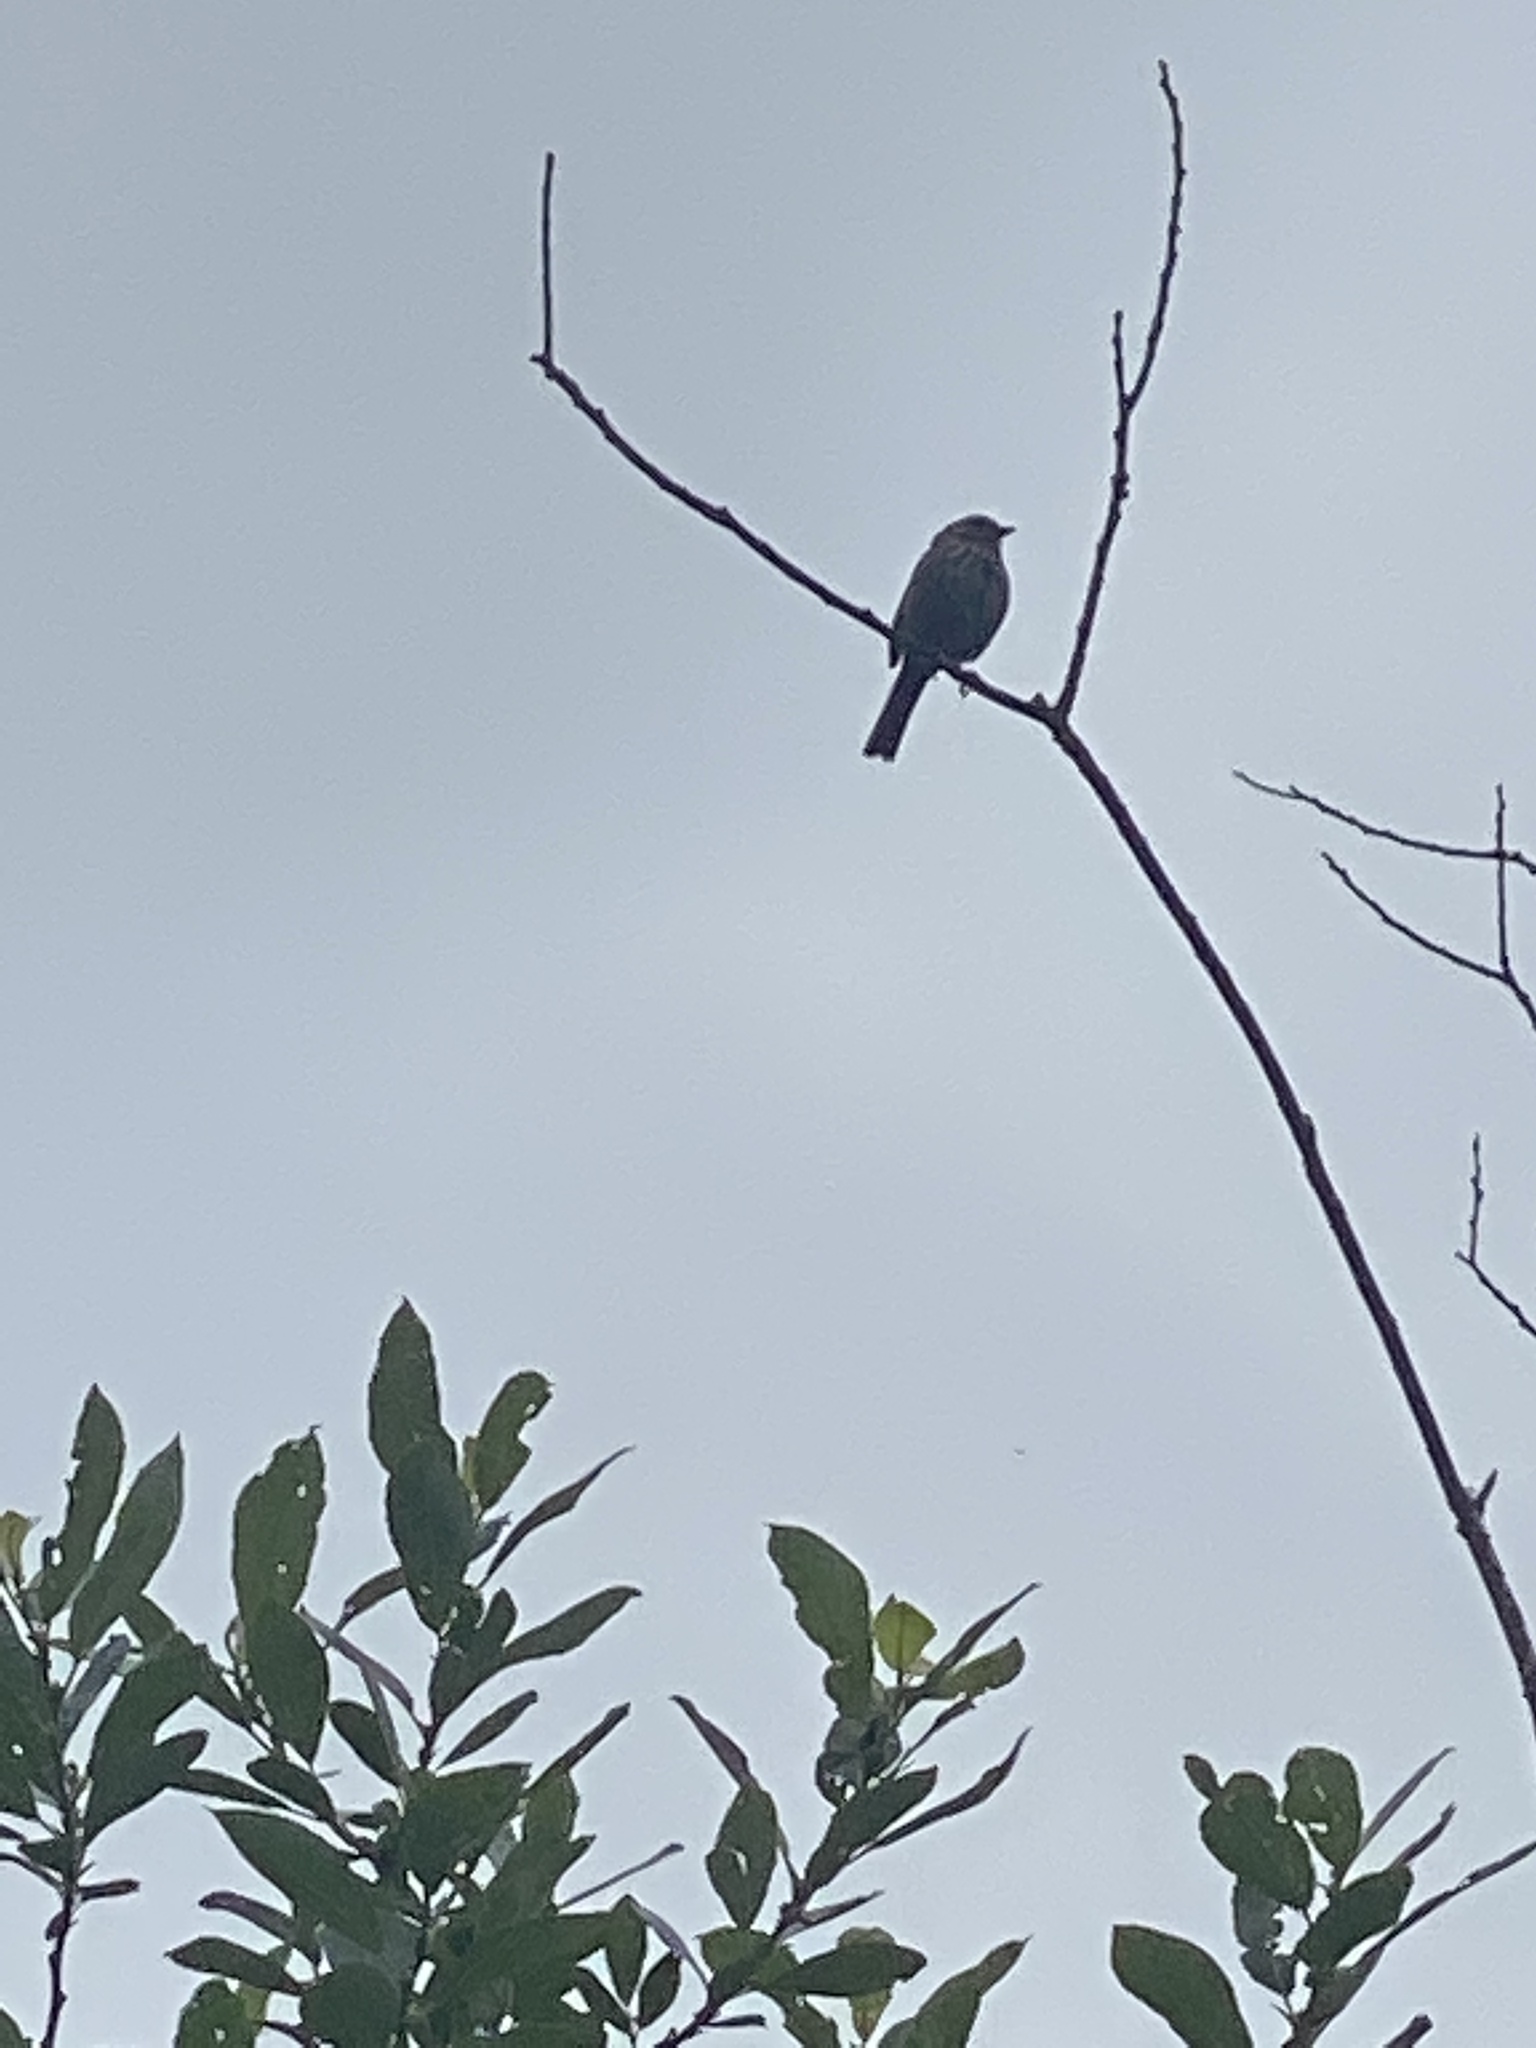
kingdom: Animalia
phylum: Chordata
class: Aves
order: Passeriformes
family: Passerellidae
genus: Melospiza
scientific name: Melospiza melodia
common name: Song sparrow
